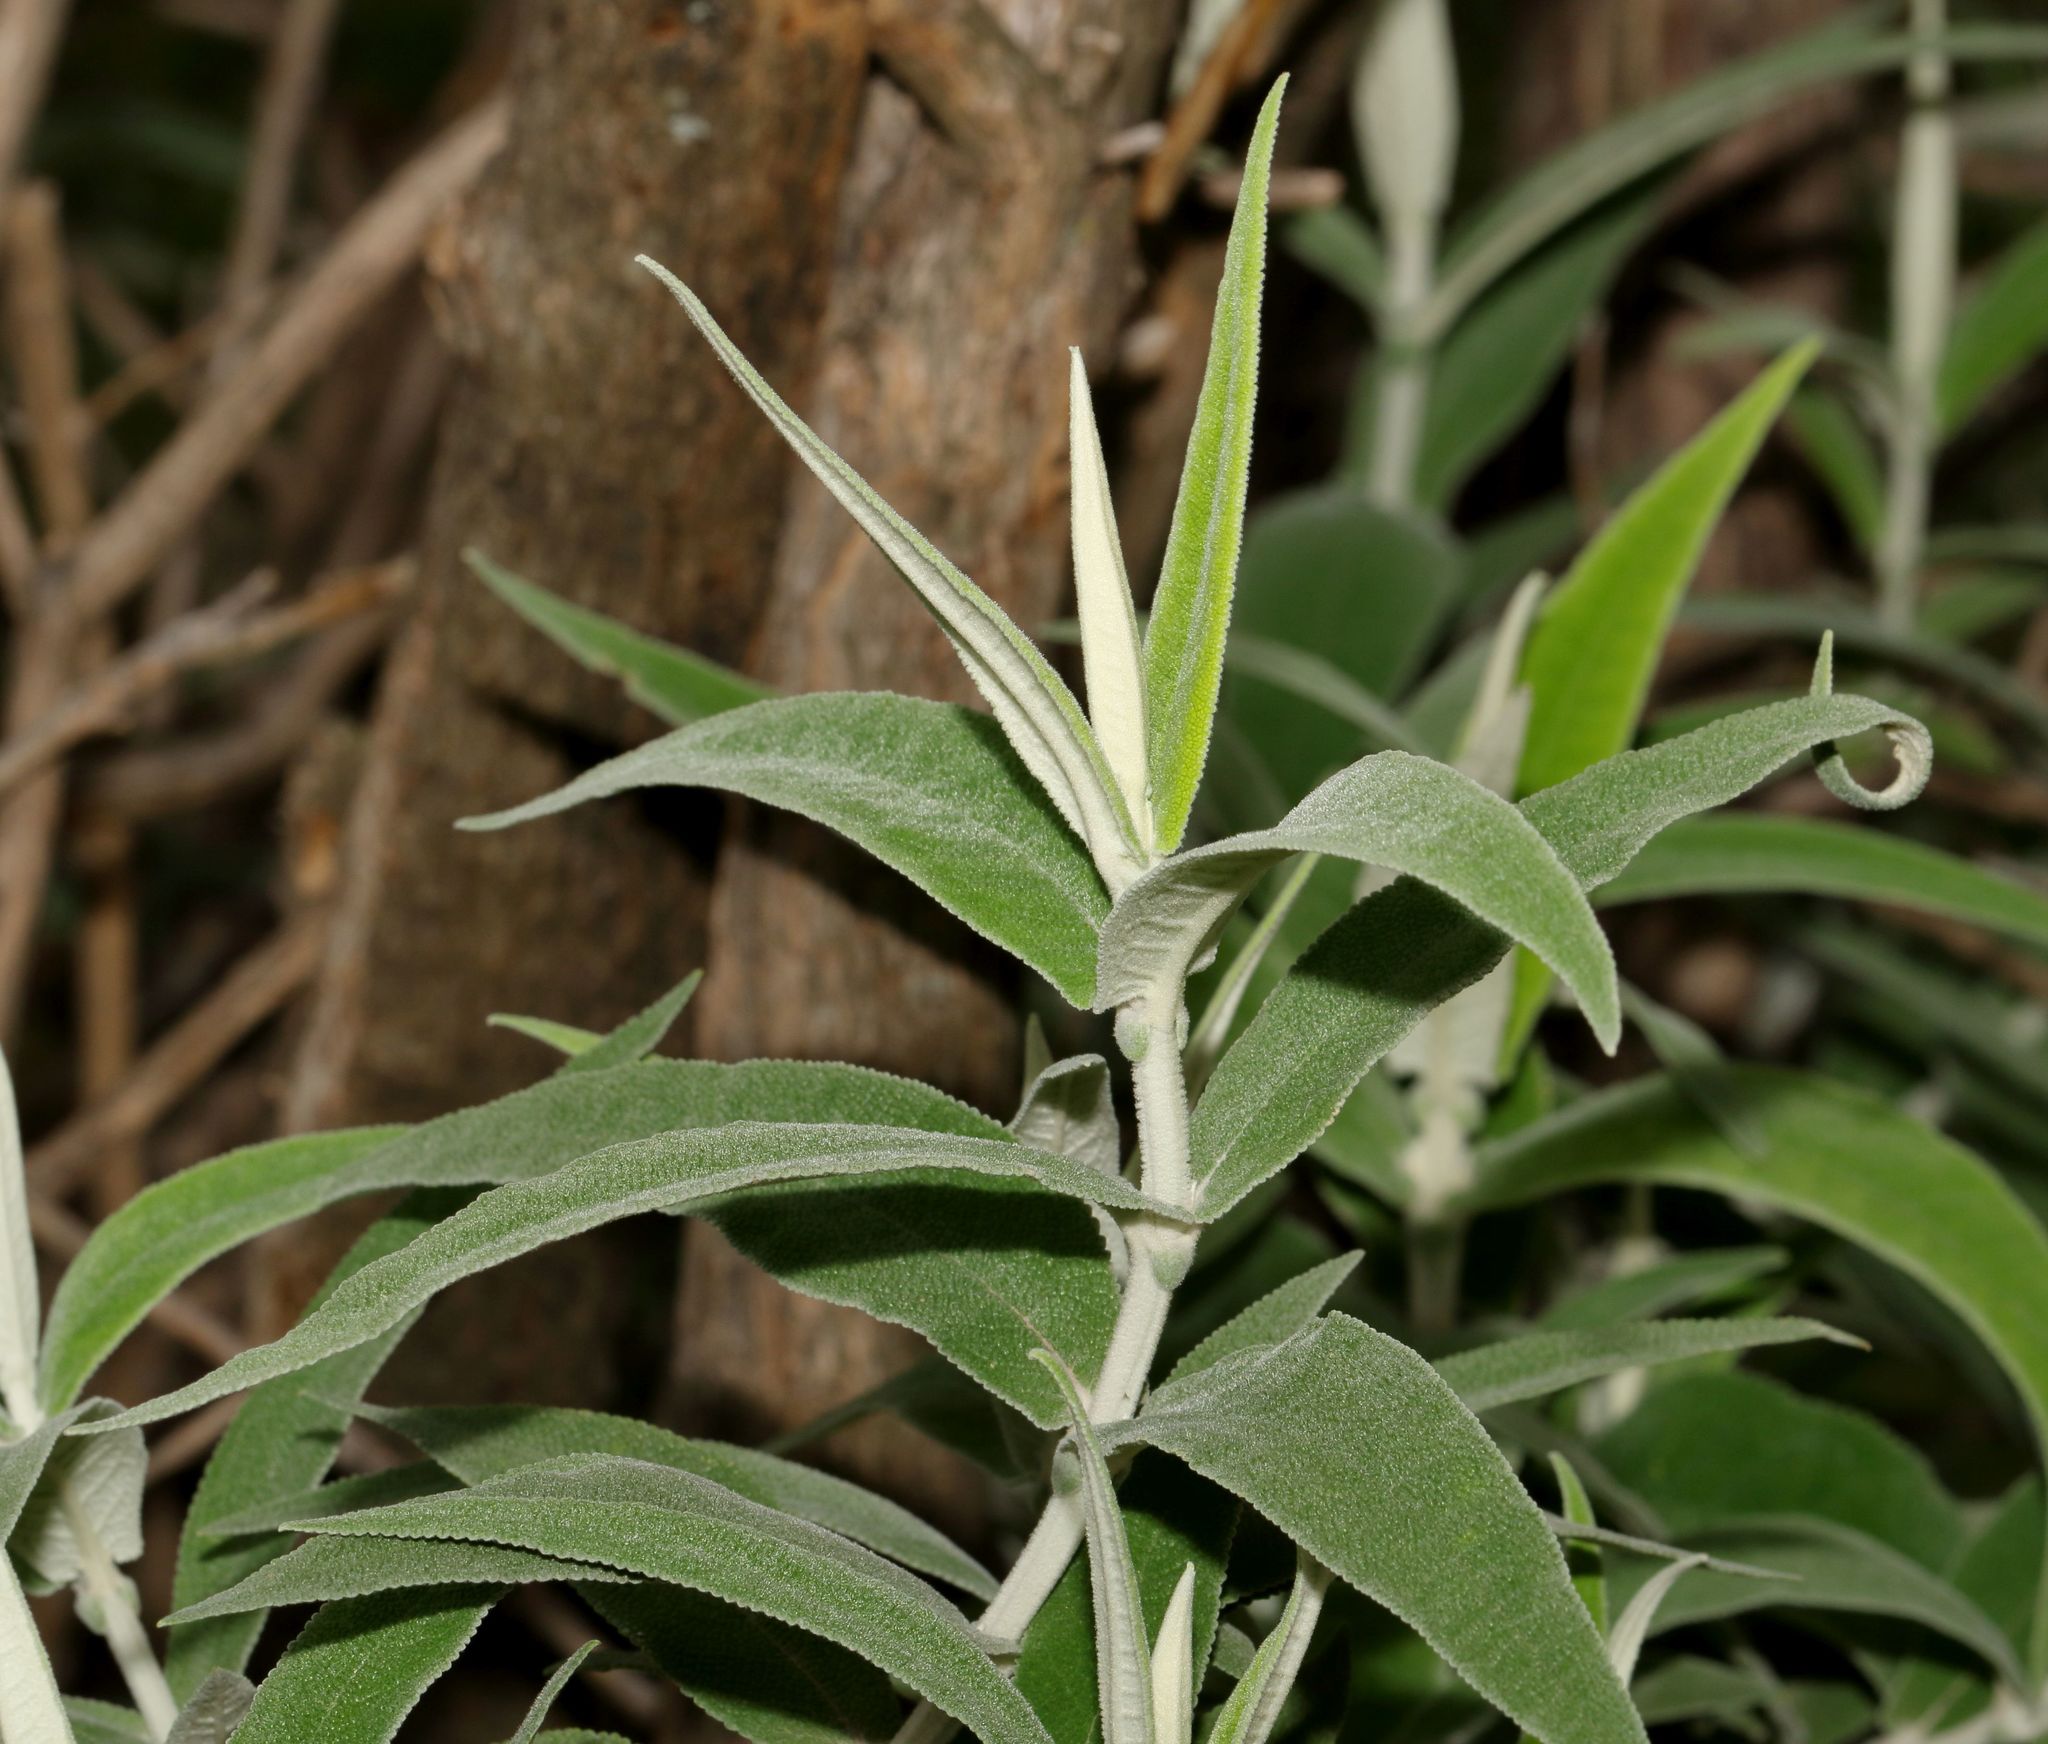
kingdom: Plantae
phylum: Tracheophyta
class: Magnoliopsida
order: Lamiales
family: Scrophulariaceae
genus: Buddleja
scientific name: Buddleja salviifolia
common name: Sagewood
